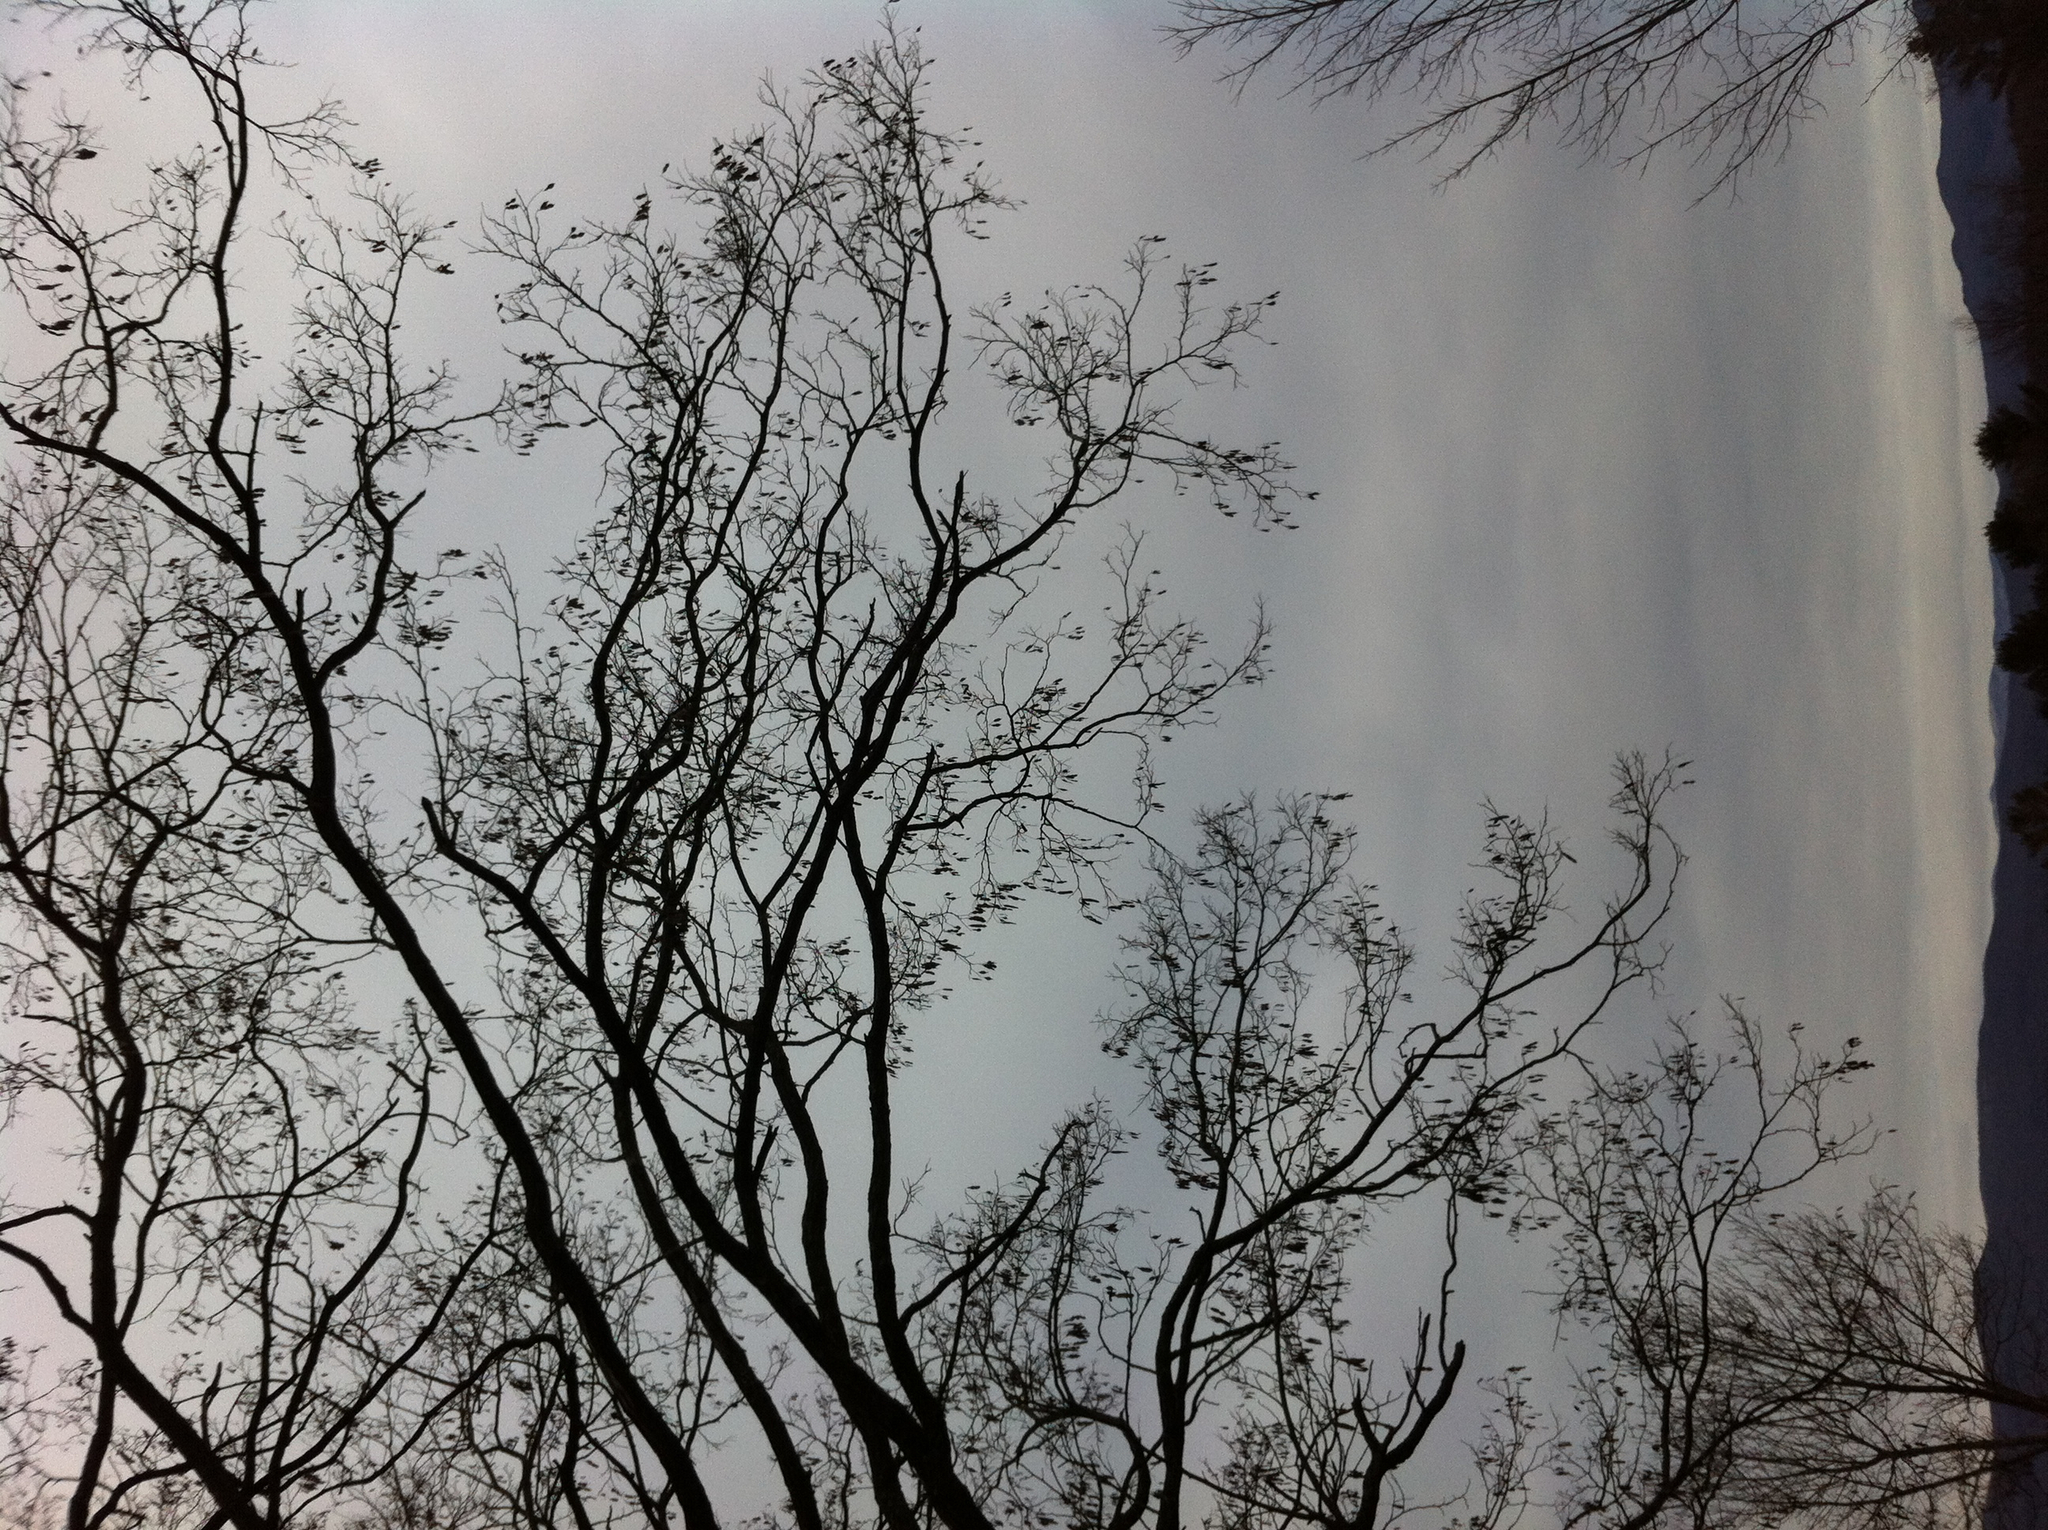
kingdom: Plantae
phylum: Tracheophyta
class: Magnoliopsida
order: Fabales
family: Fabaceae
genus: Robinia
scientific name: Robinia pseudoacacia
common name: Black locust
